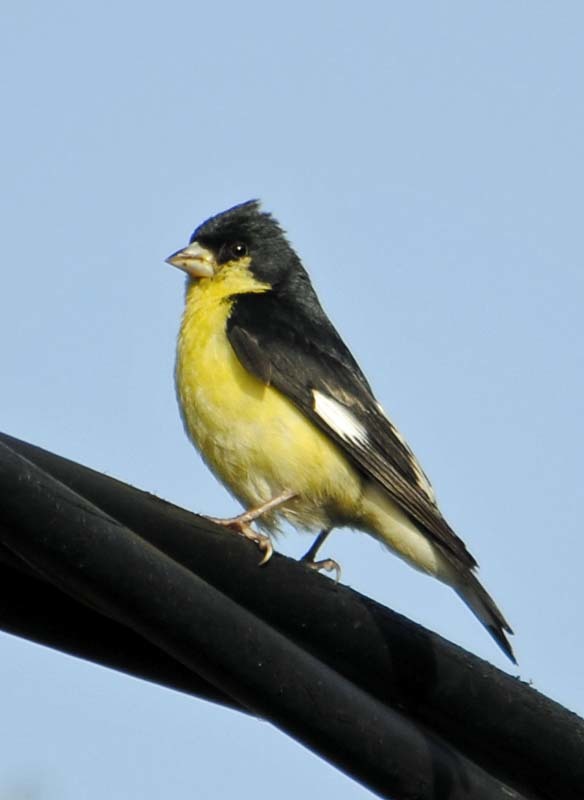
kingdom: Animalia
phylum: Chordata
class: Aves
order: Passeriformes
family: Fringillidae
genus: Spinus
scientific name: Spinus psaltria
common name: Lesser goldfinch
